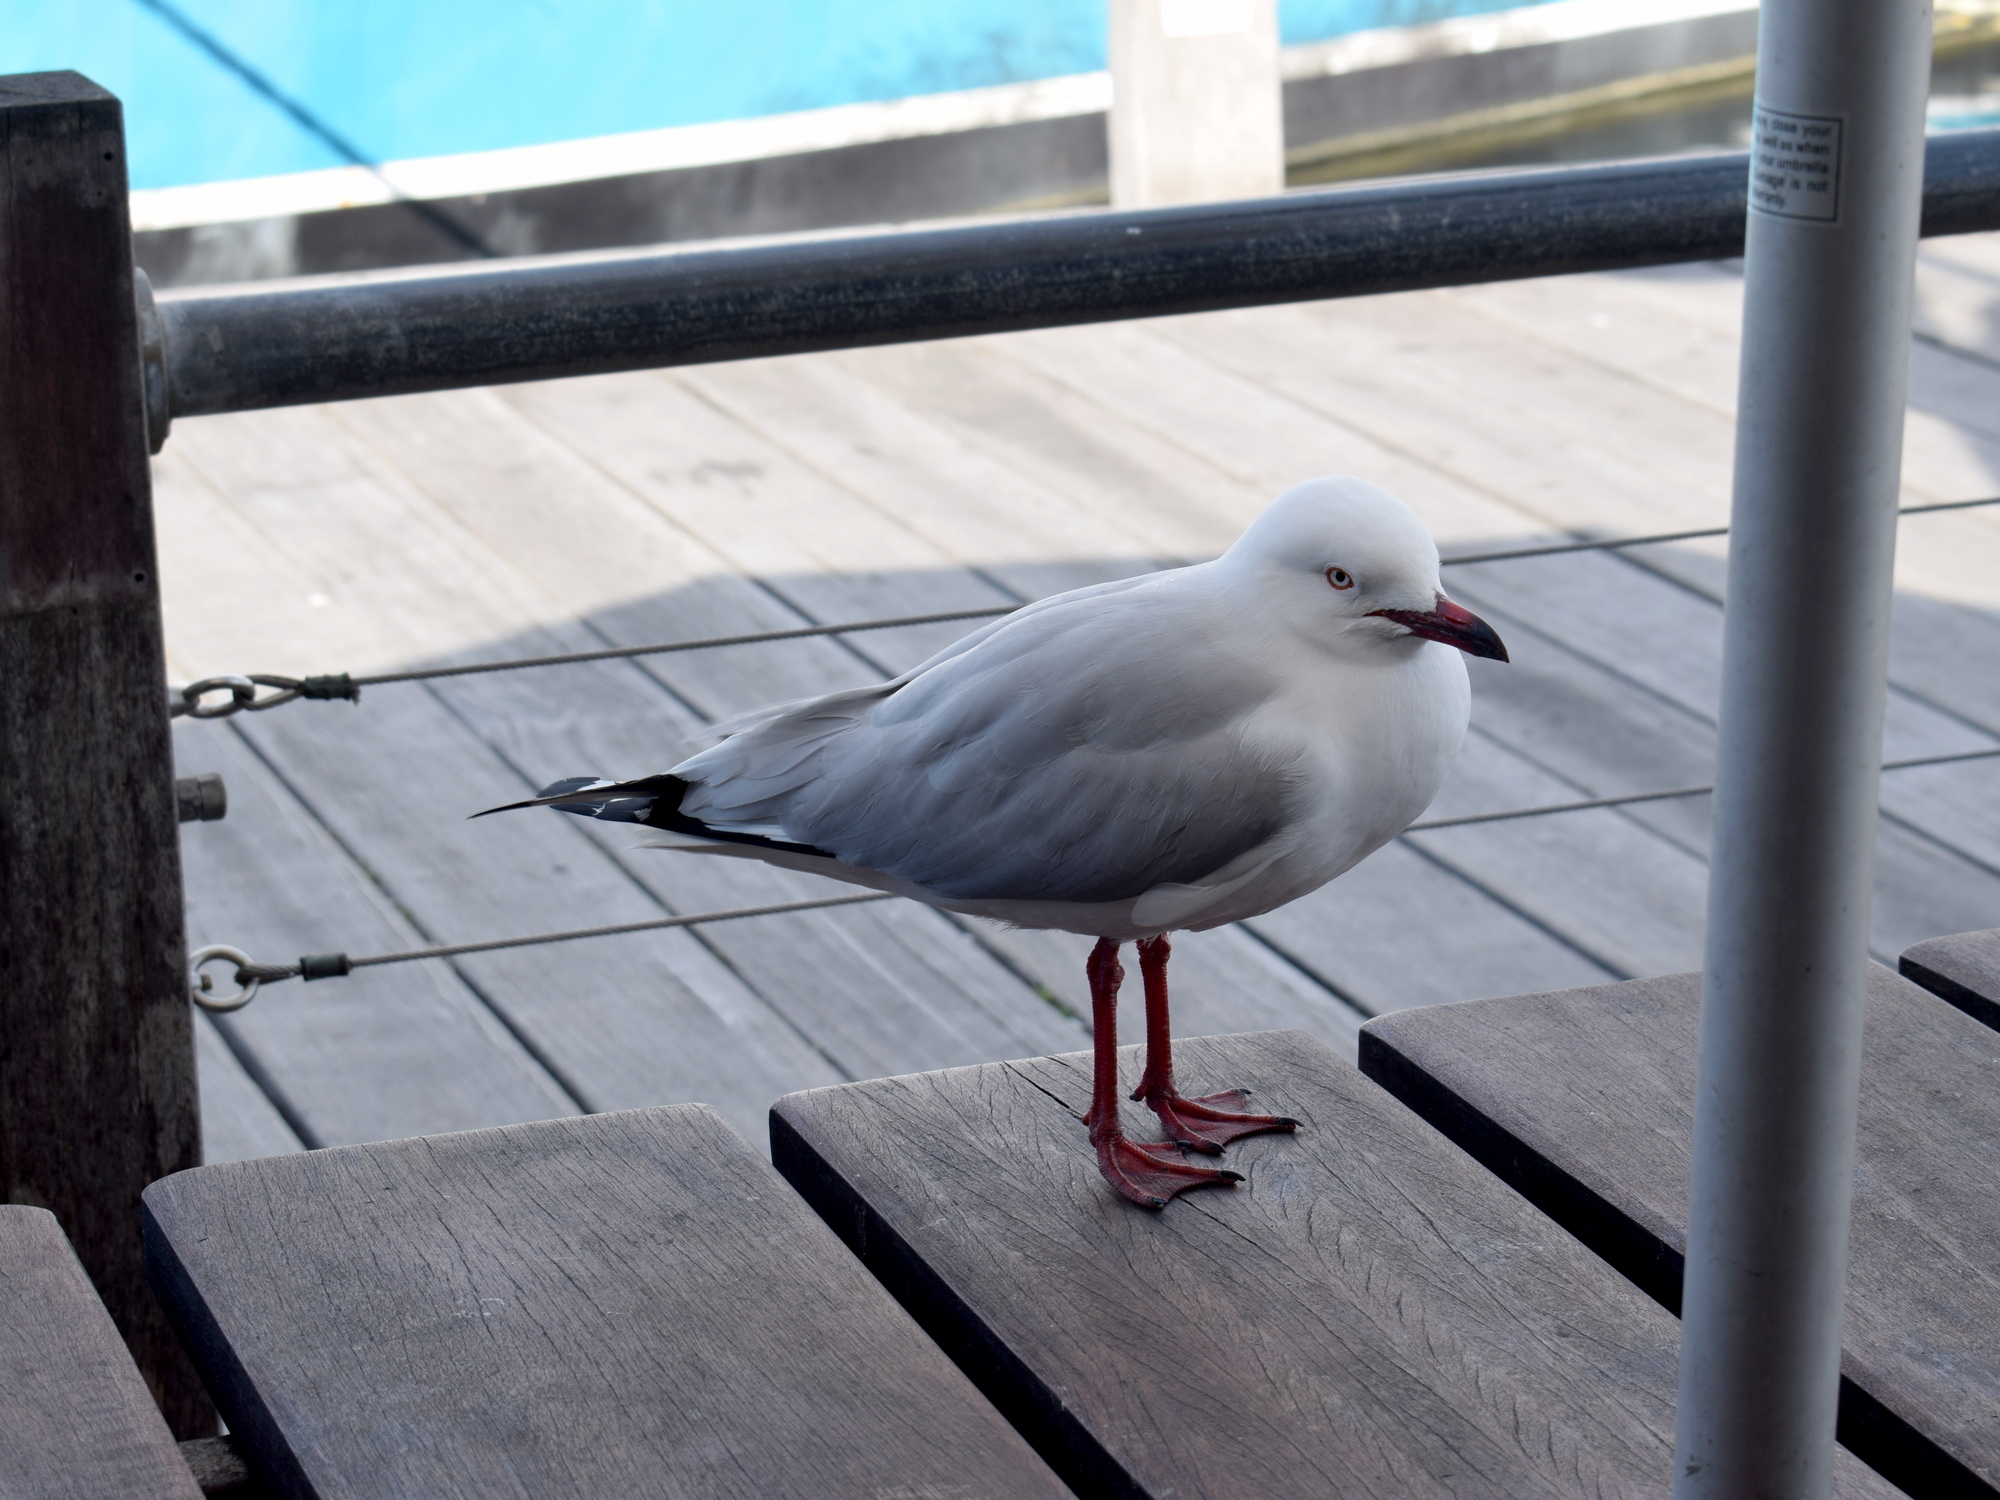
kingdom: Animalia
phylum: Chordata
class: Aves
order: Charadriiformes
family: Laridae
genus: Chroicocephalus
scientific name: Chroicocephalus novaehollandiae
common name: Silver gull
